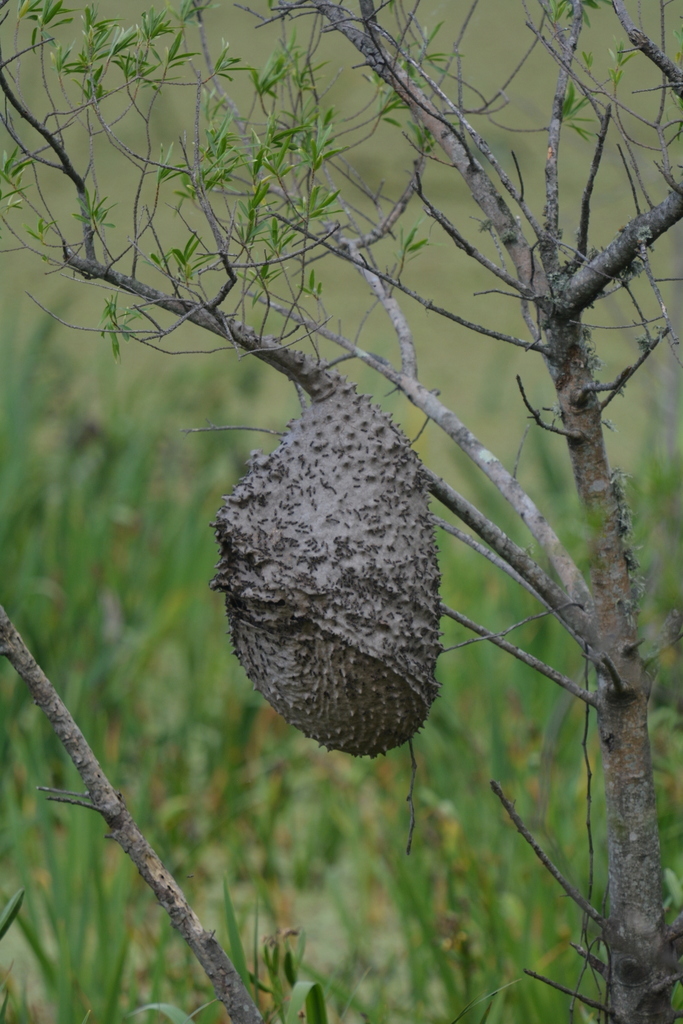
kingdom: Animalia
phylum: Arthropoda
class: Insecta
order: Hymenoptera
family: Eumenidae
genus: Polybia
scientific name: Polybia scutellaris
